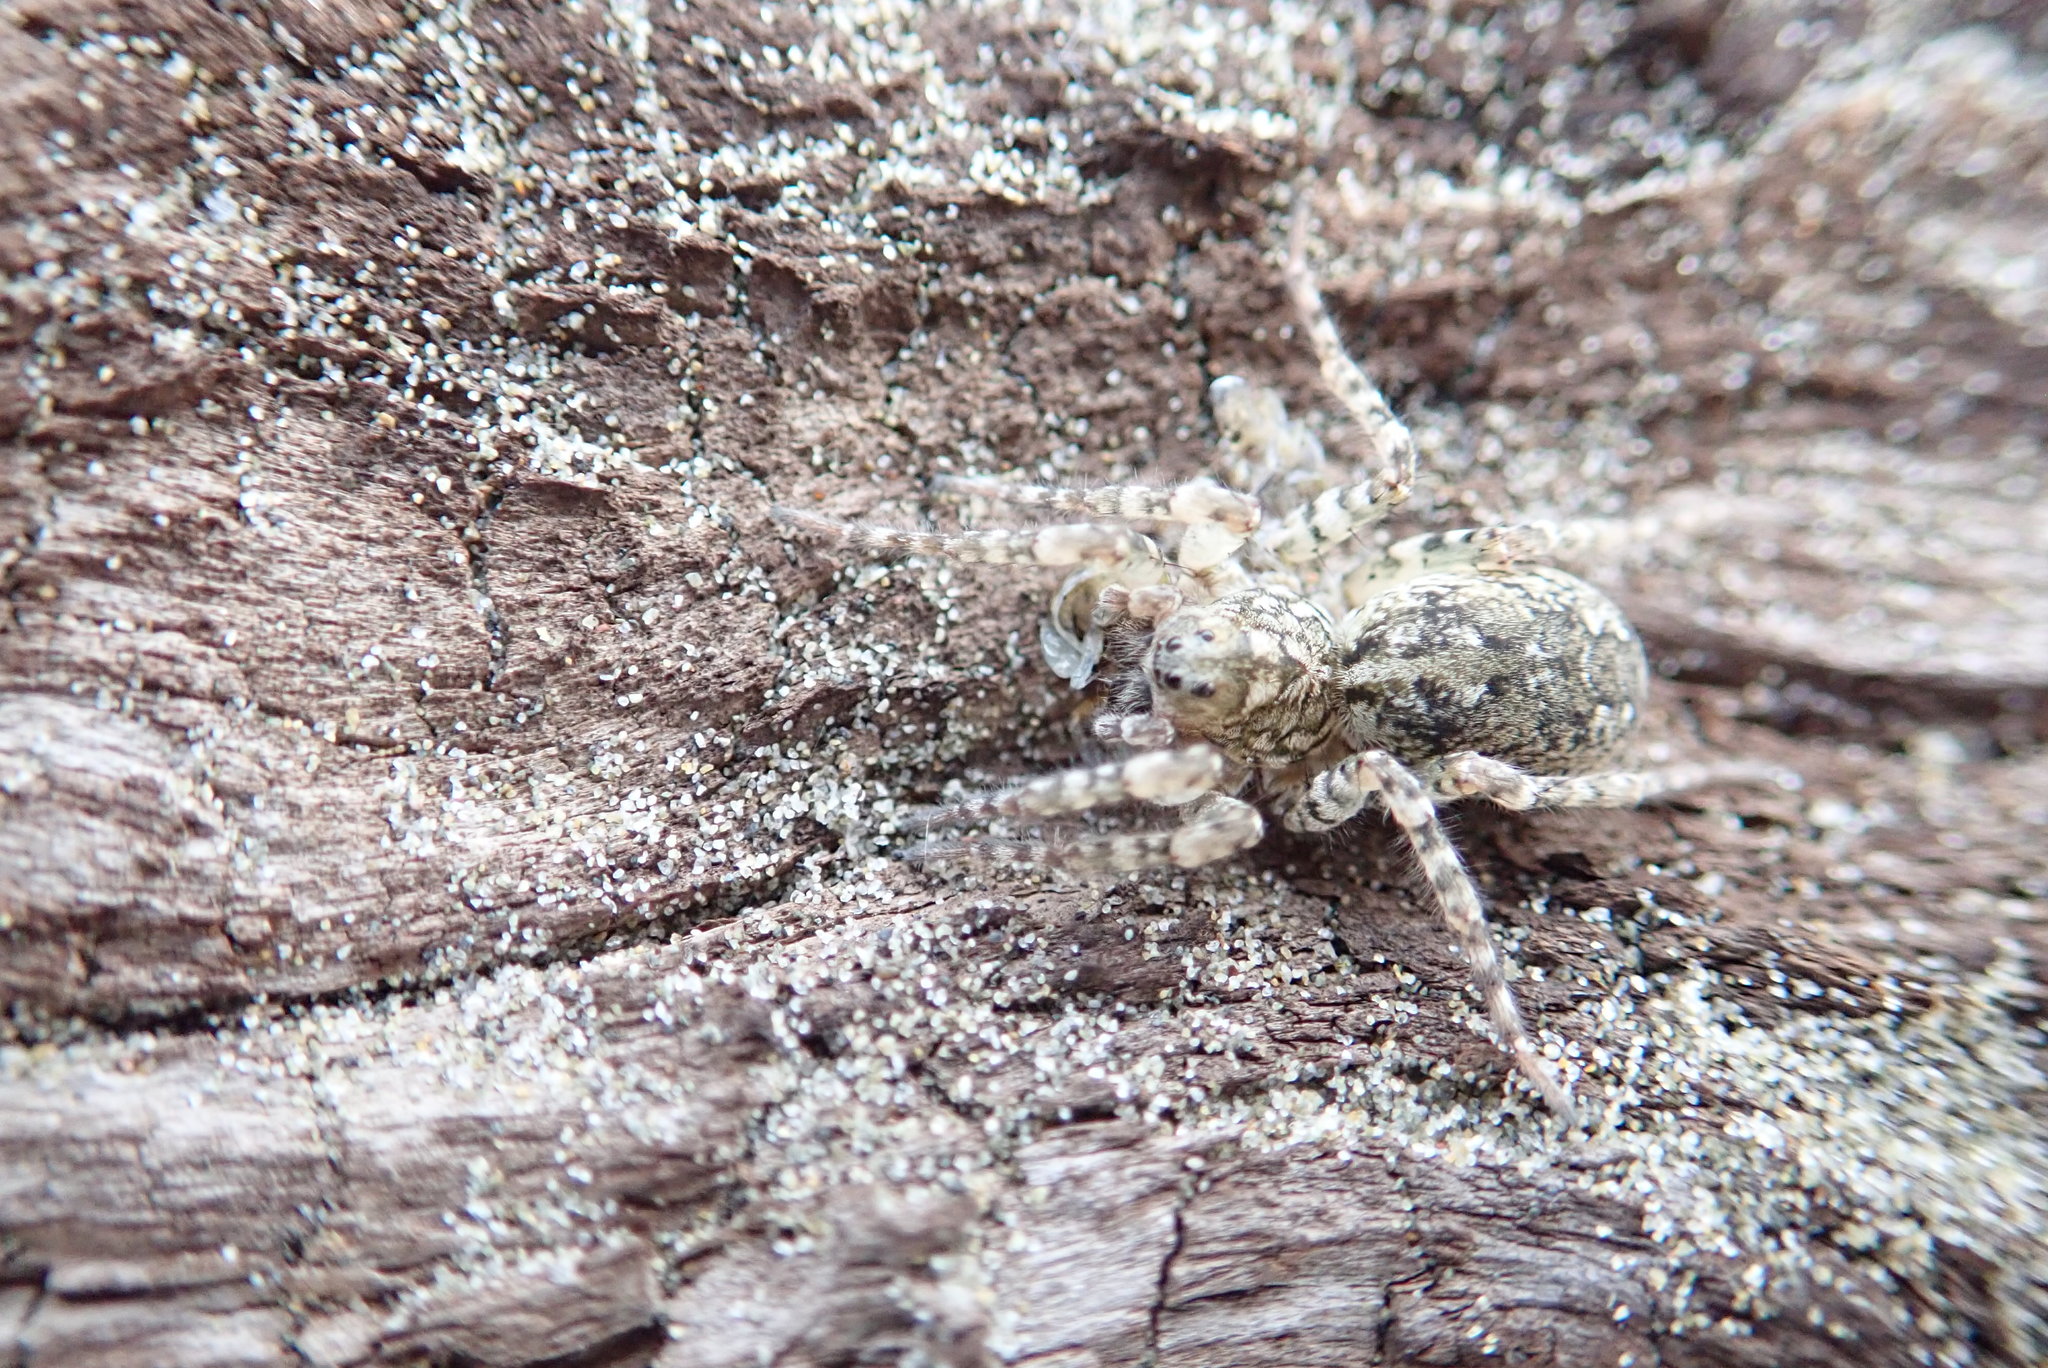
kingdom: Animalia
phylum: Arthropoda
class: Arachnida
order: Araneae
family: Lycosidae
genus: Anoteropsis
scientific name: Anoteropsis litoralis
